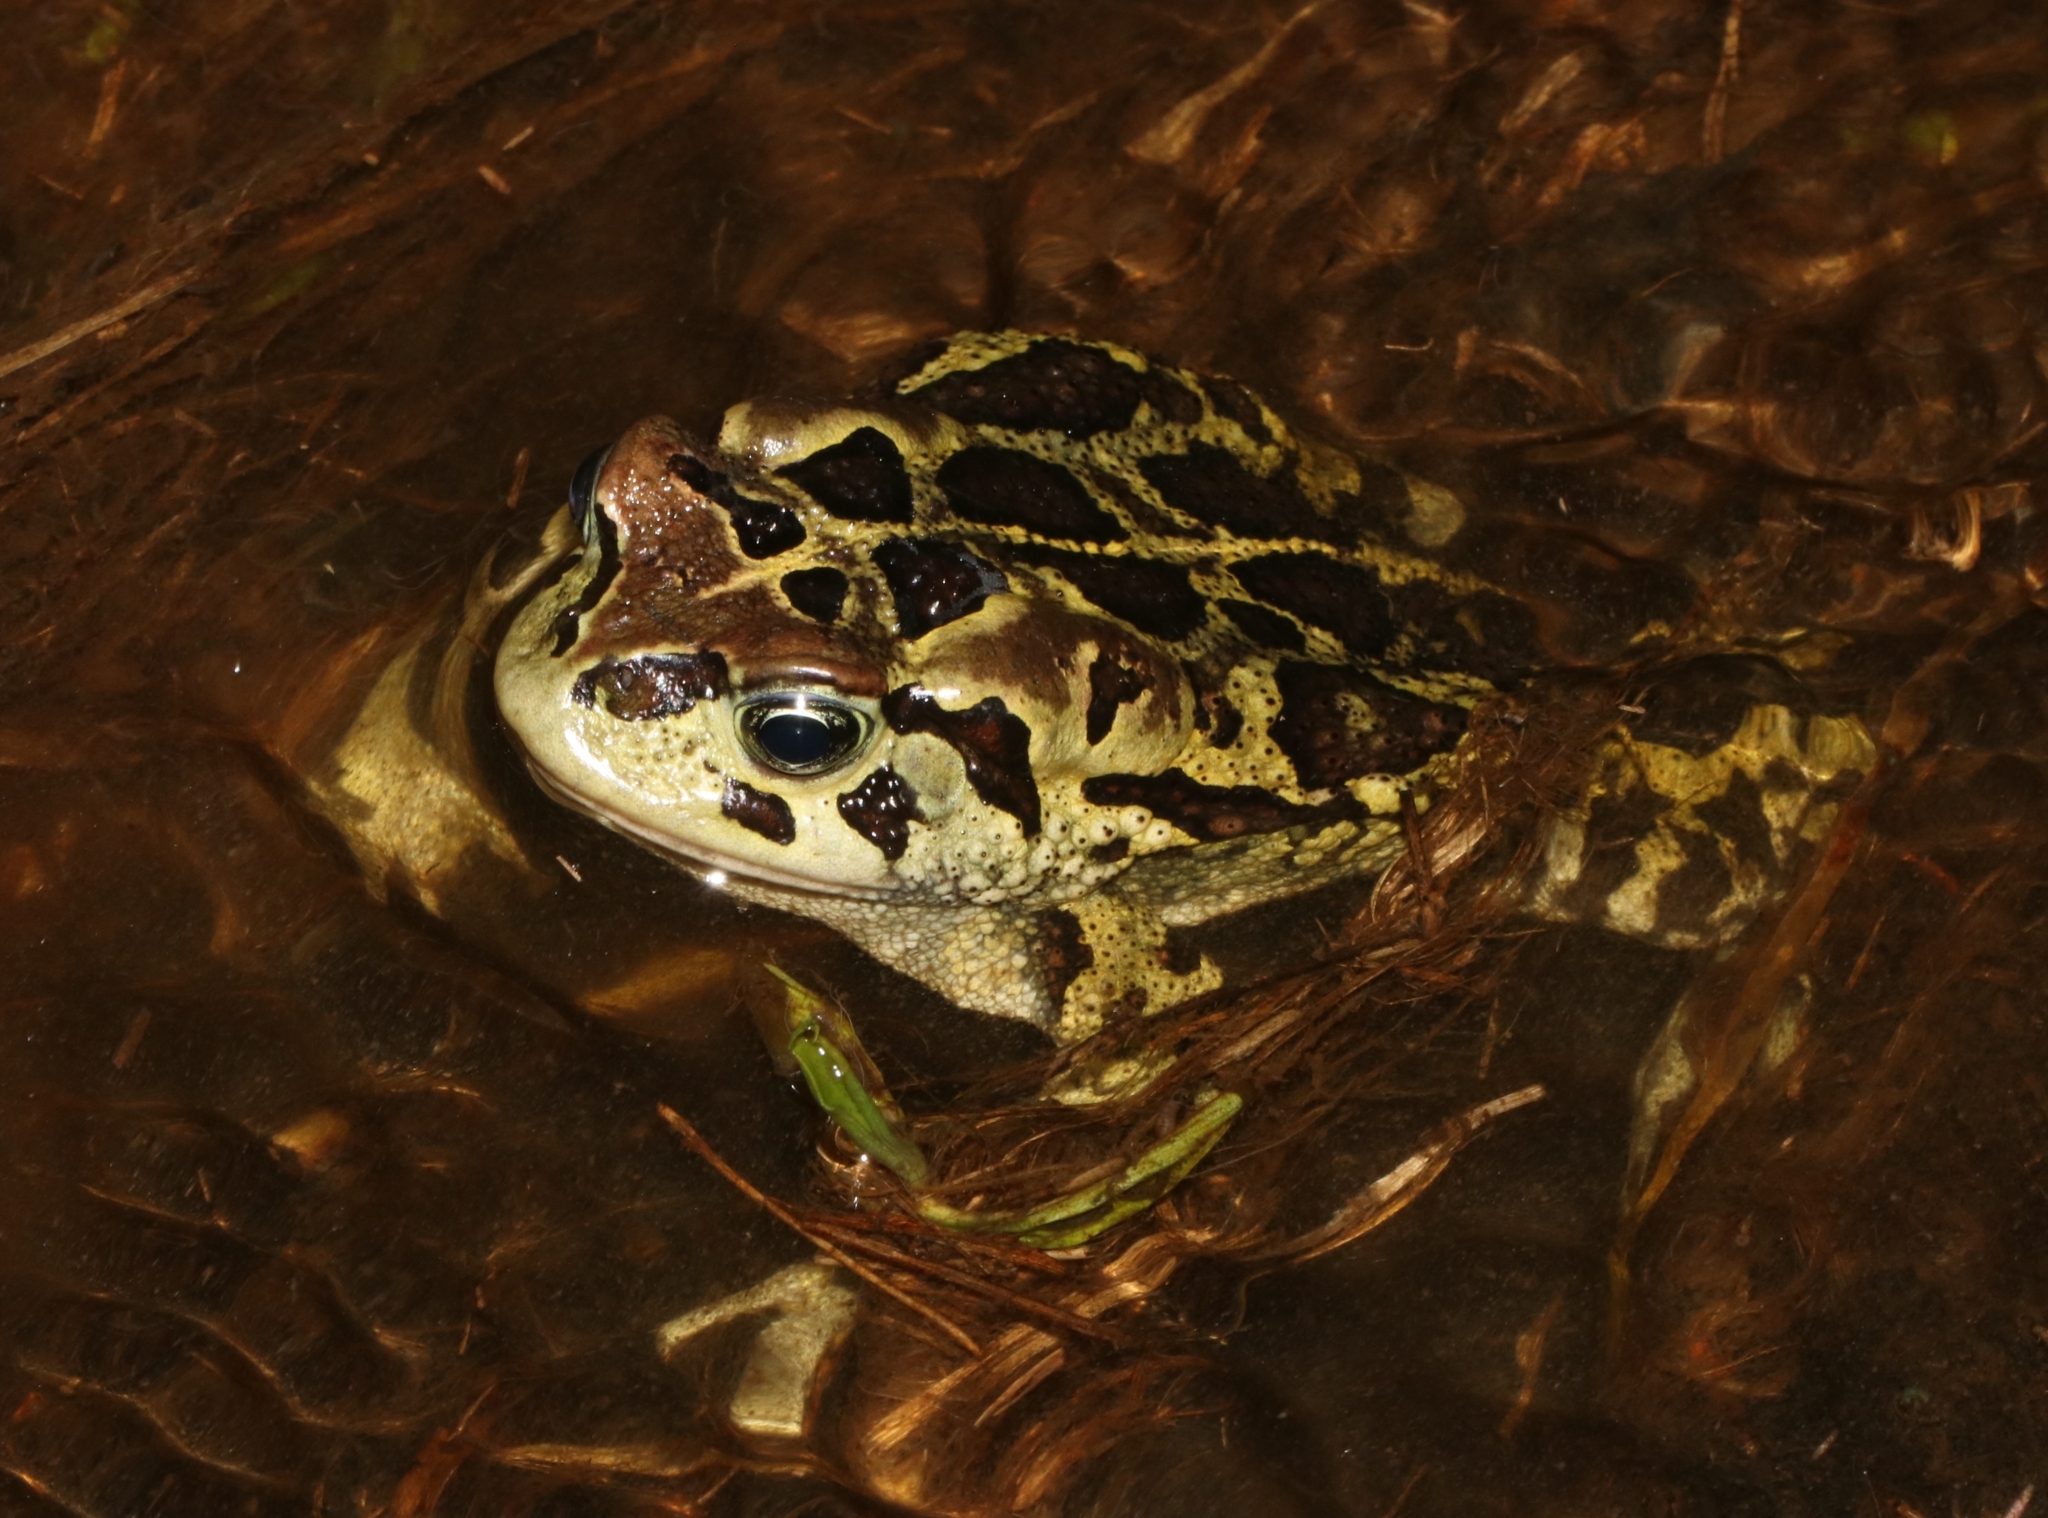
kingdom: Animalia
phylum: Chordata
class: Amphibia
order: Anura
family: Bufonidae
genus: Sclerophrys
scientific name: Sclerophrys pantherina
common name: Panther toad
